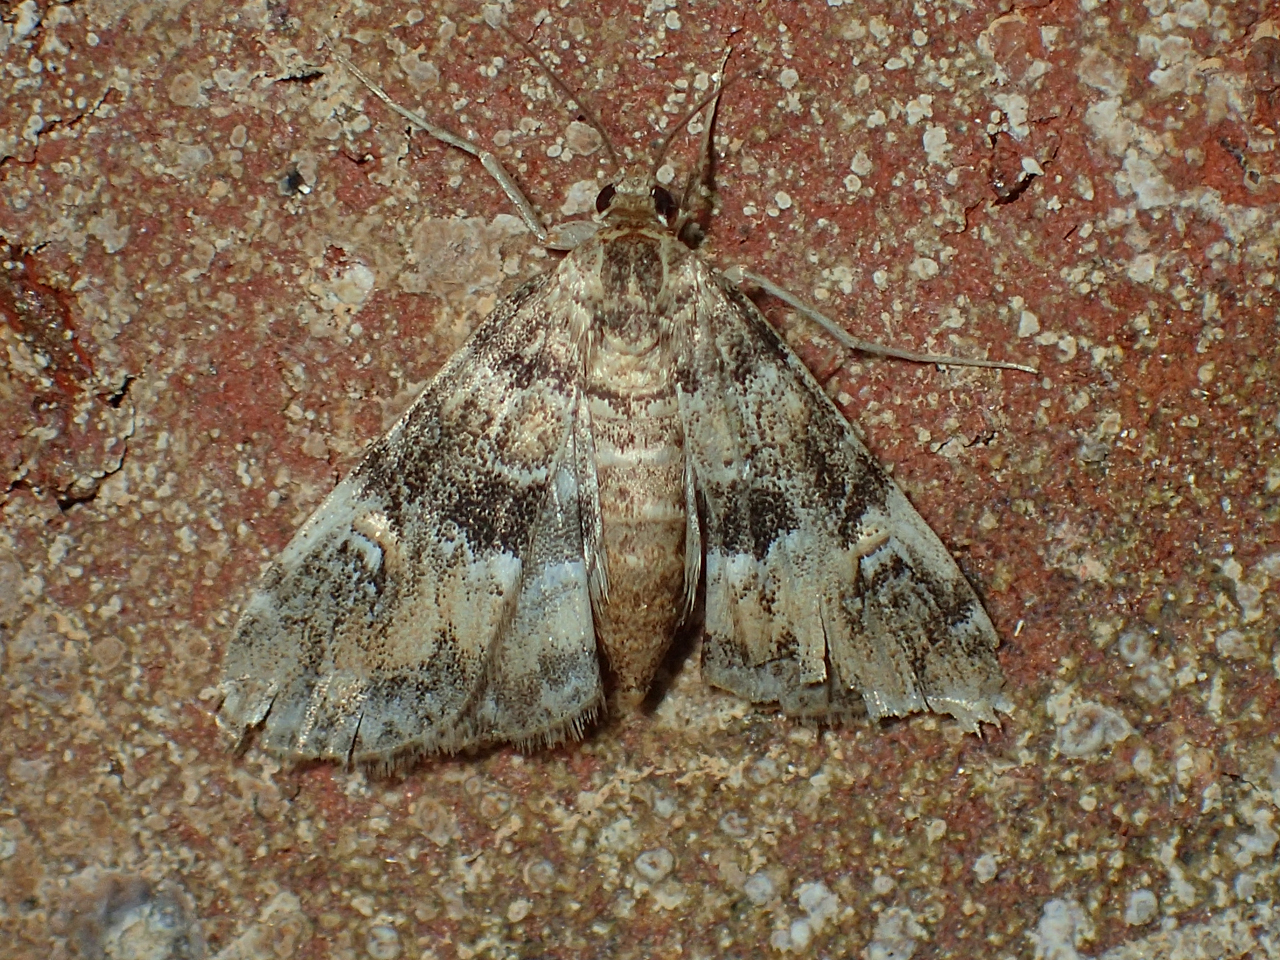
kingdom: Animalia
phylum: Arthropoda
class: Insecta
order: Lepidoptera
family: Crambidae
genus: Elophila
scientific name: Elophila obliteralis
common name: Waterlily leafcutter moth
